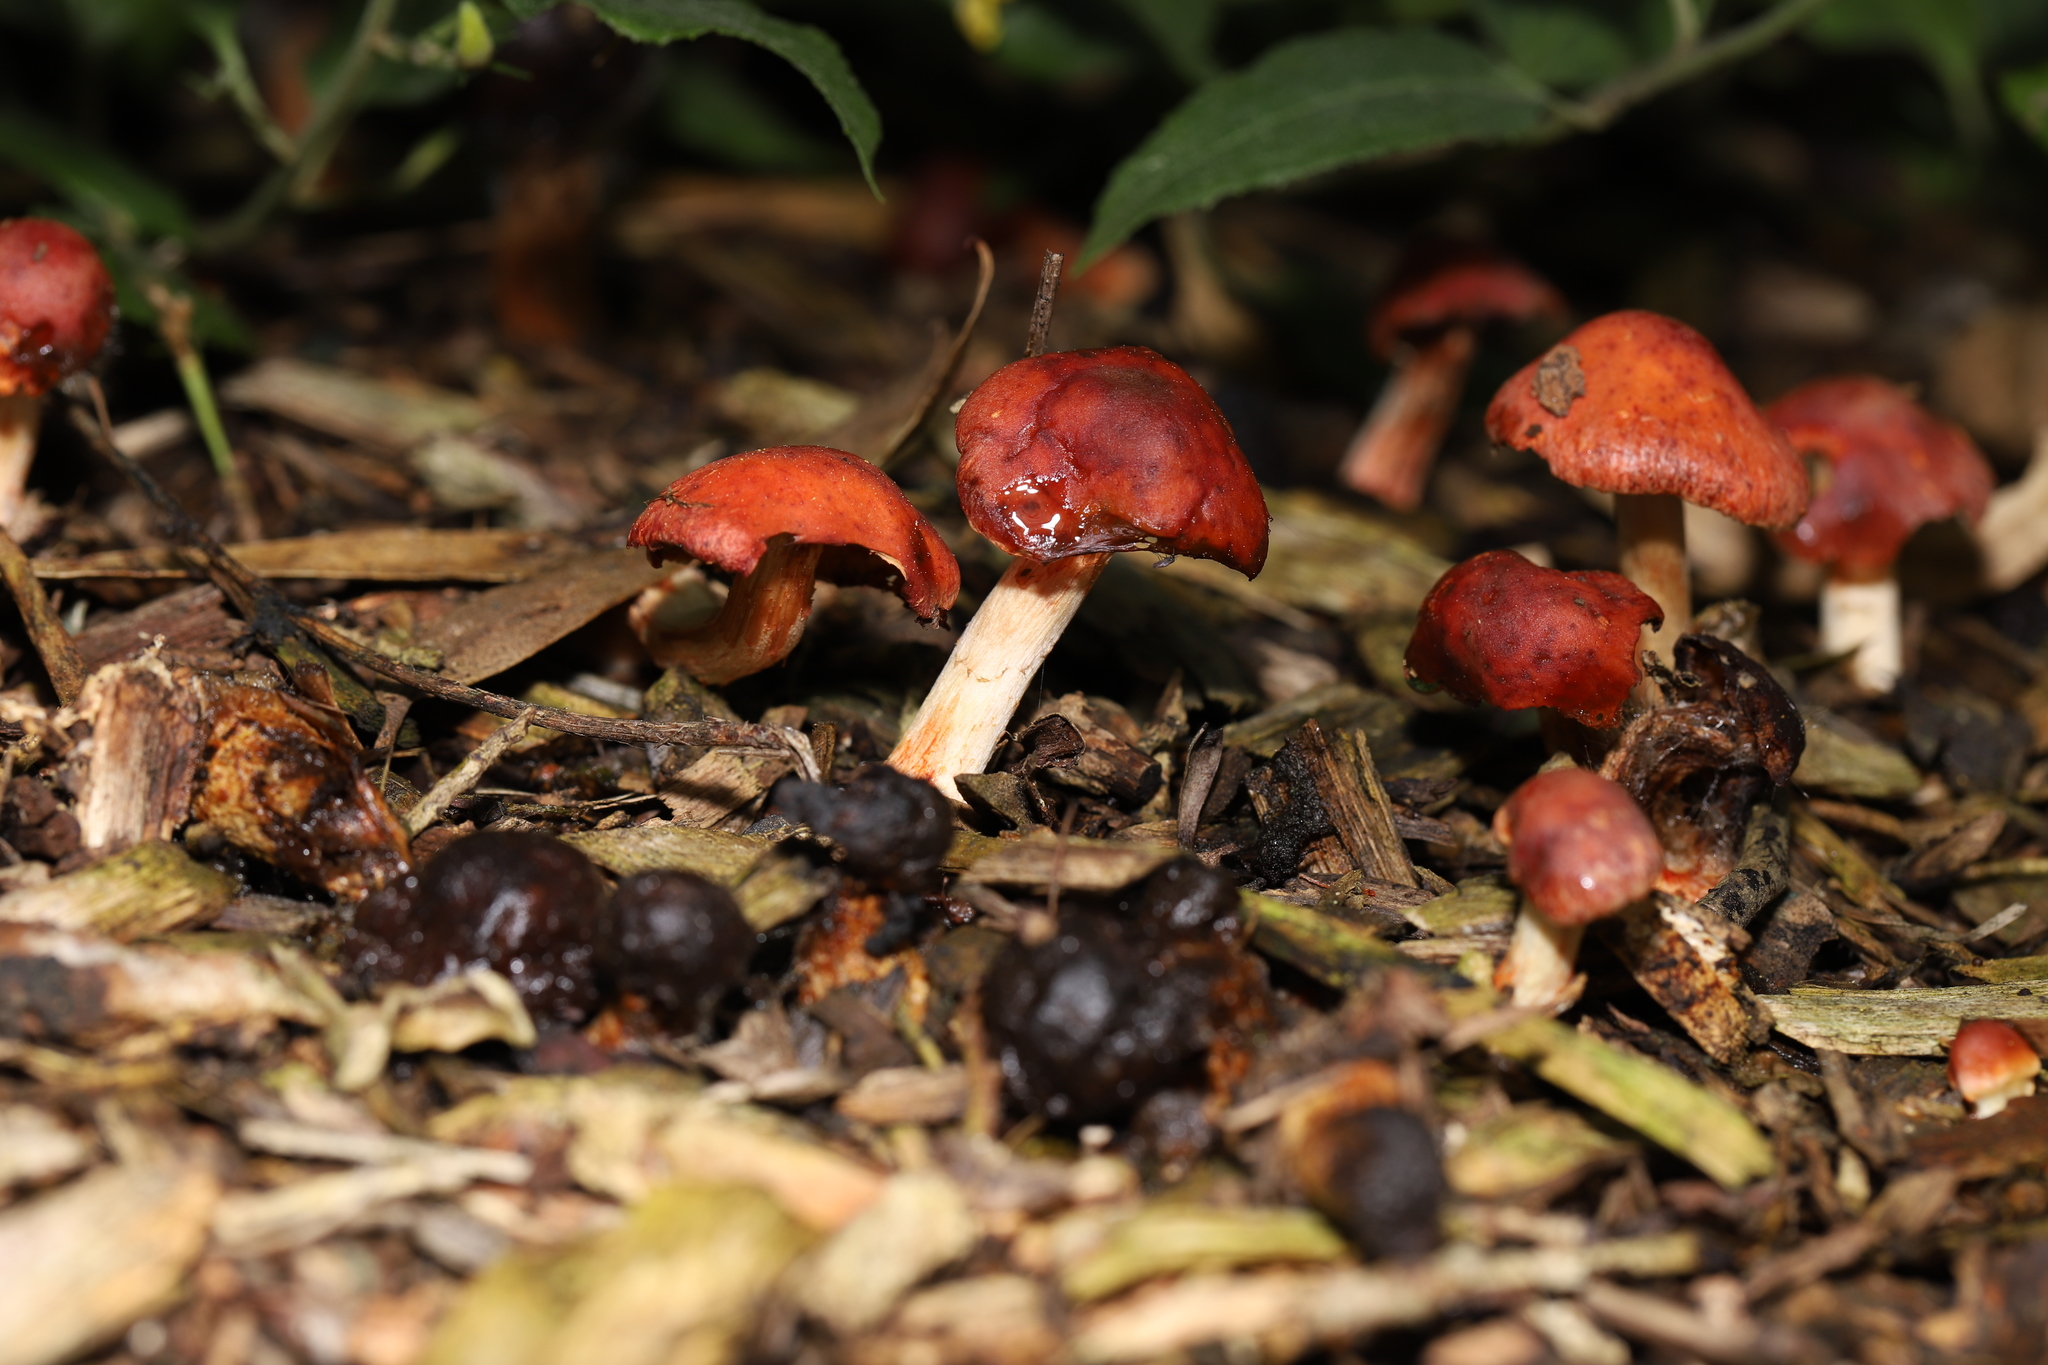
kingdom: Fungi
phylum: Basidiomycota
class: Agaricomycetes
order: Agaricales
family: Strophariaceae
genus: Leratiomyces
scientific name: Leratiomyces ceres
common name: Redlead roundhead
